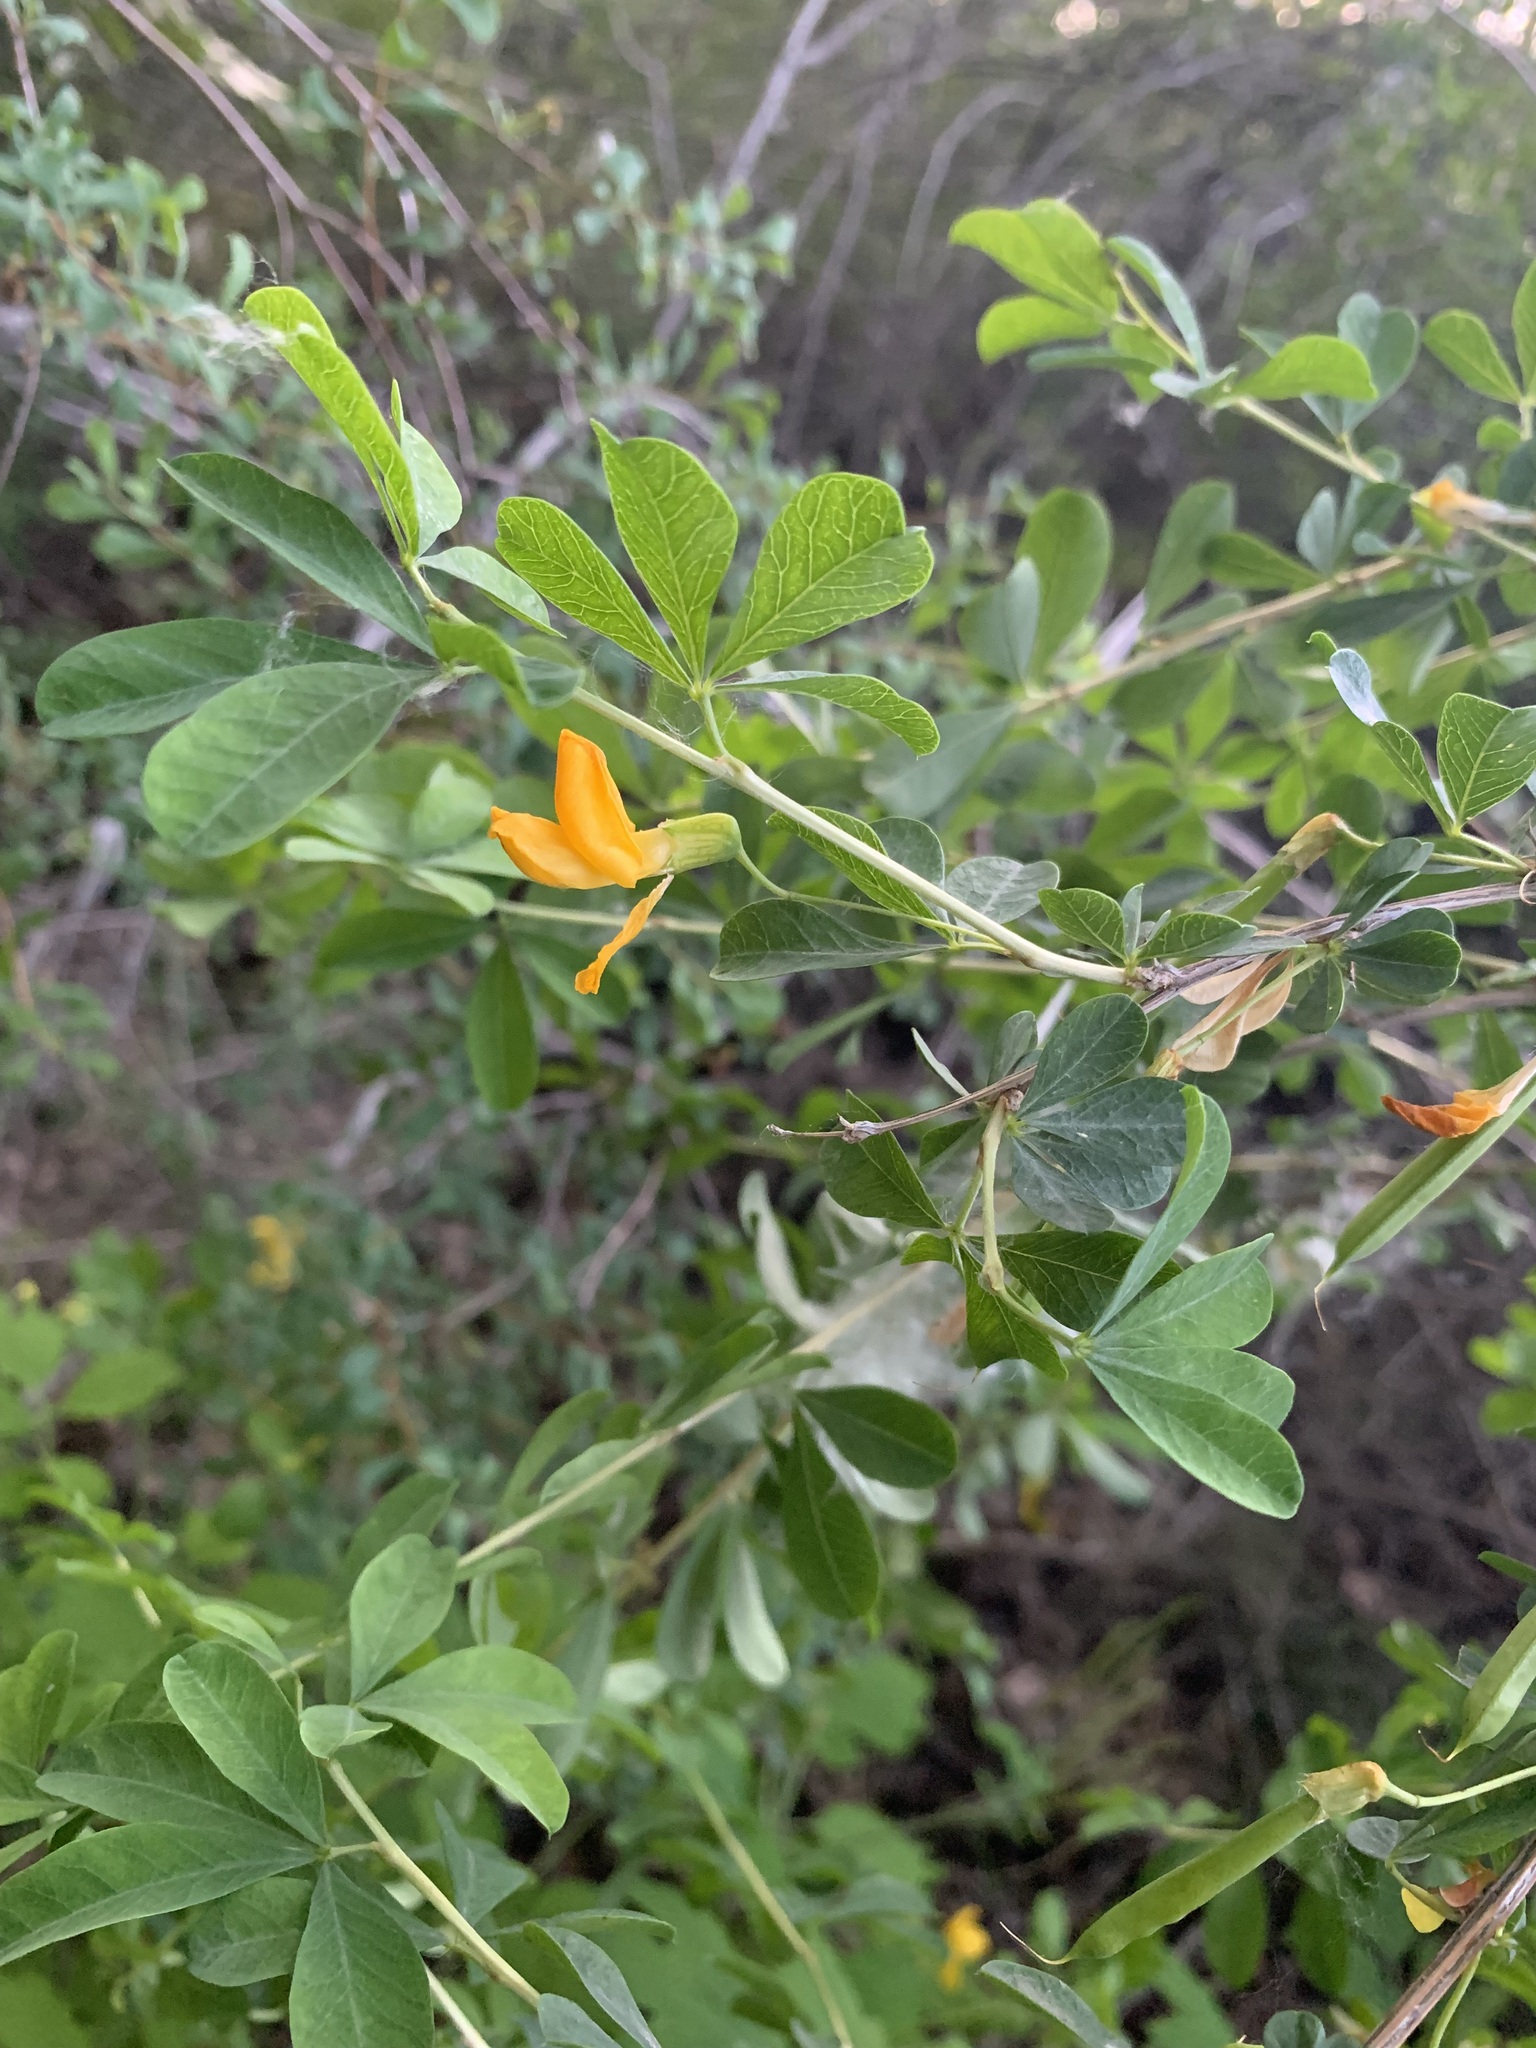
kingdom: Plantae
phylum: Tracheophyta
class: Magnoliopsida
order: Fabales
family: Fabaceae
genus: Caragana
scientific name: Caragana frutex
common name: Russian peashrub
